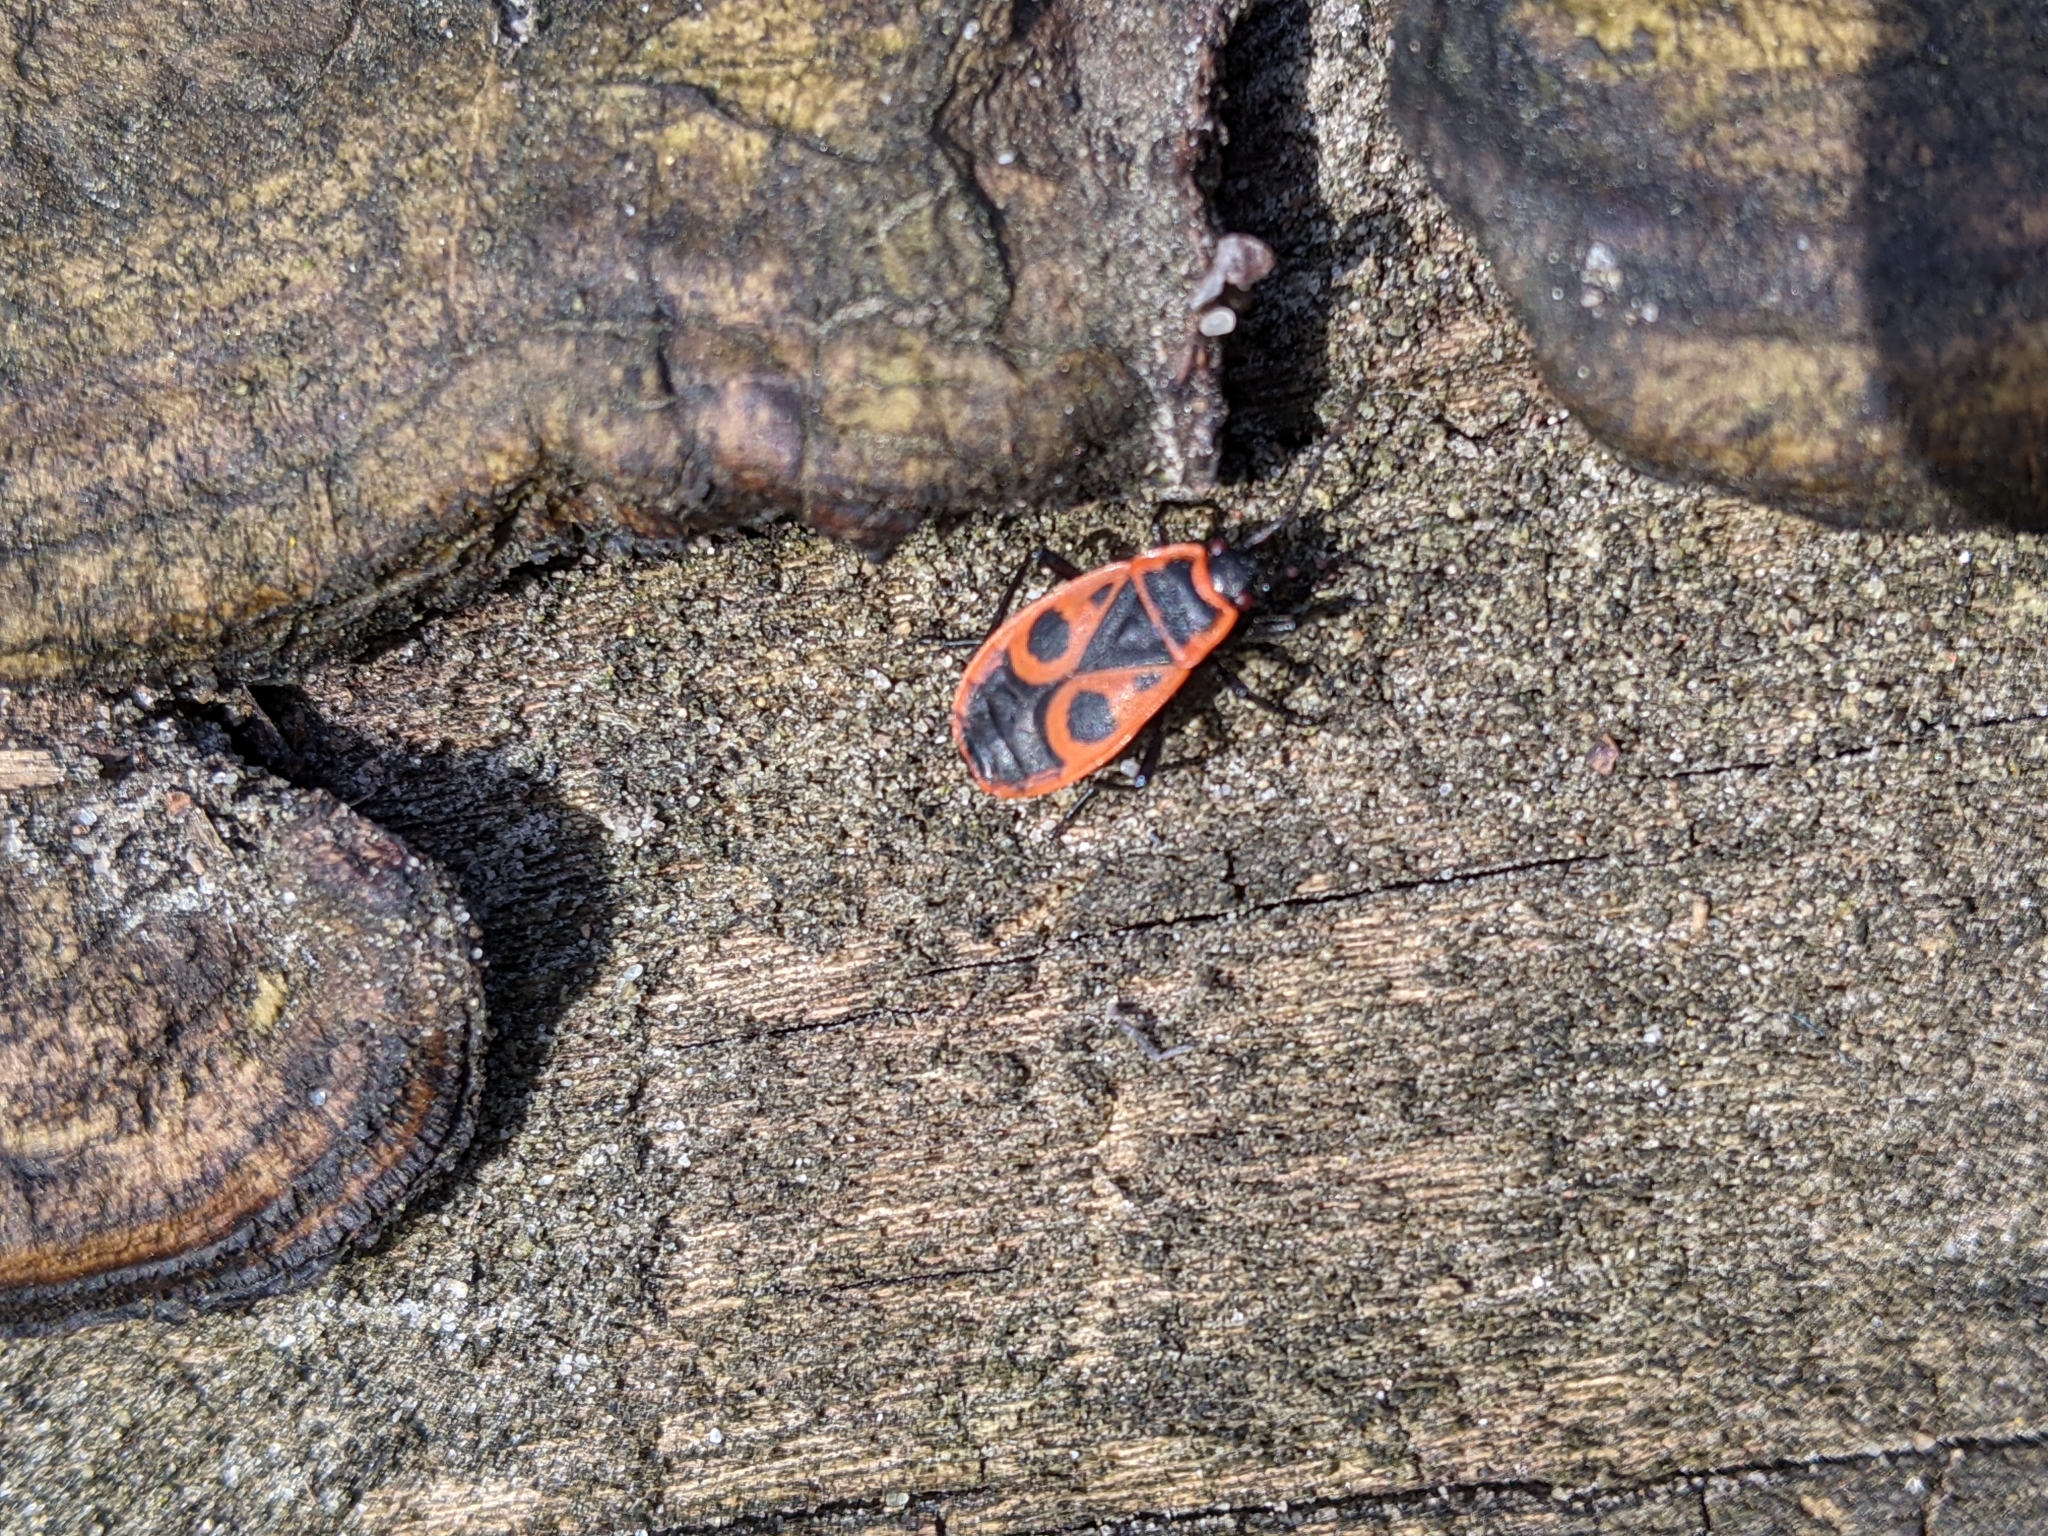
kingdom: Animalia
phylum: Arthropoda
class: Insecta
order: Hemiptera
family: Pyrrhocoridae
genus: Pyrrhocoris
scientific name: Pyrrhocoris apterus
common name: Firebug
